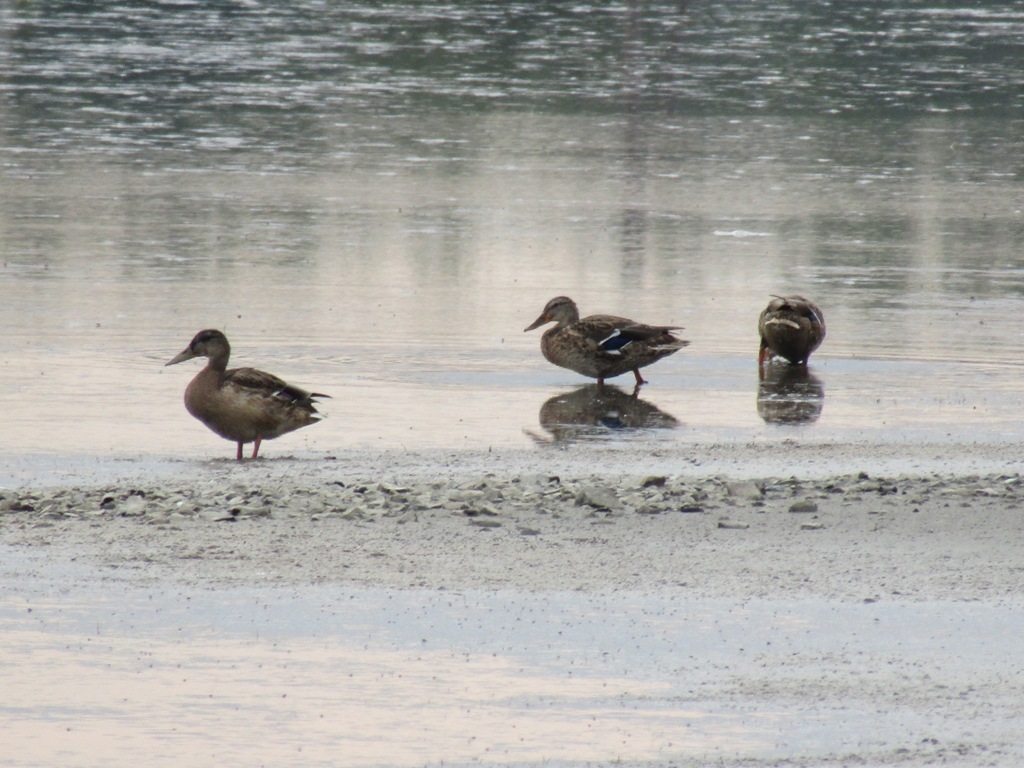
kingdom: Animalia
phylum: Chordata
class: Aves
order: Anseriformes
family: Anatidae
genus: Anas
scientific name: Anas platyrhynchos
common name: Mallard
